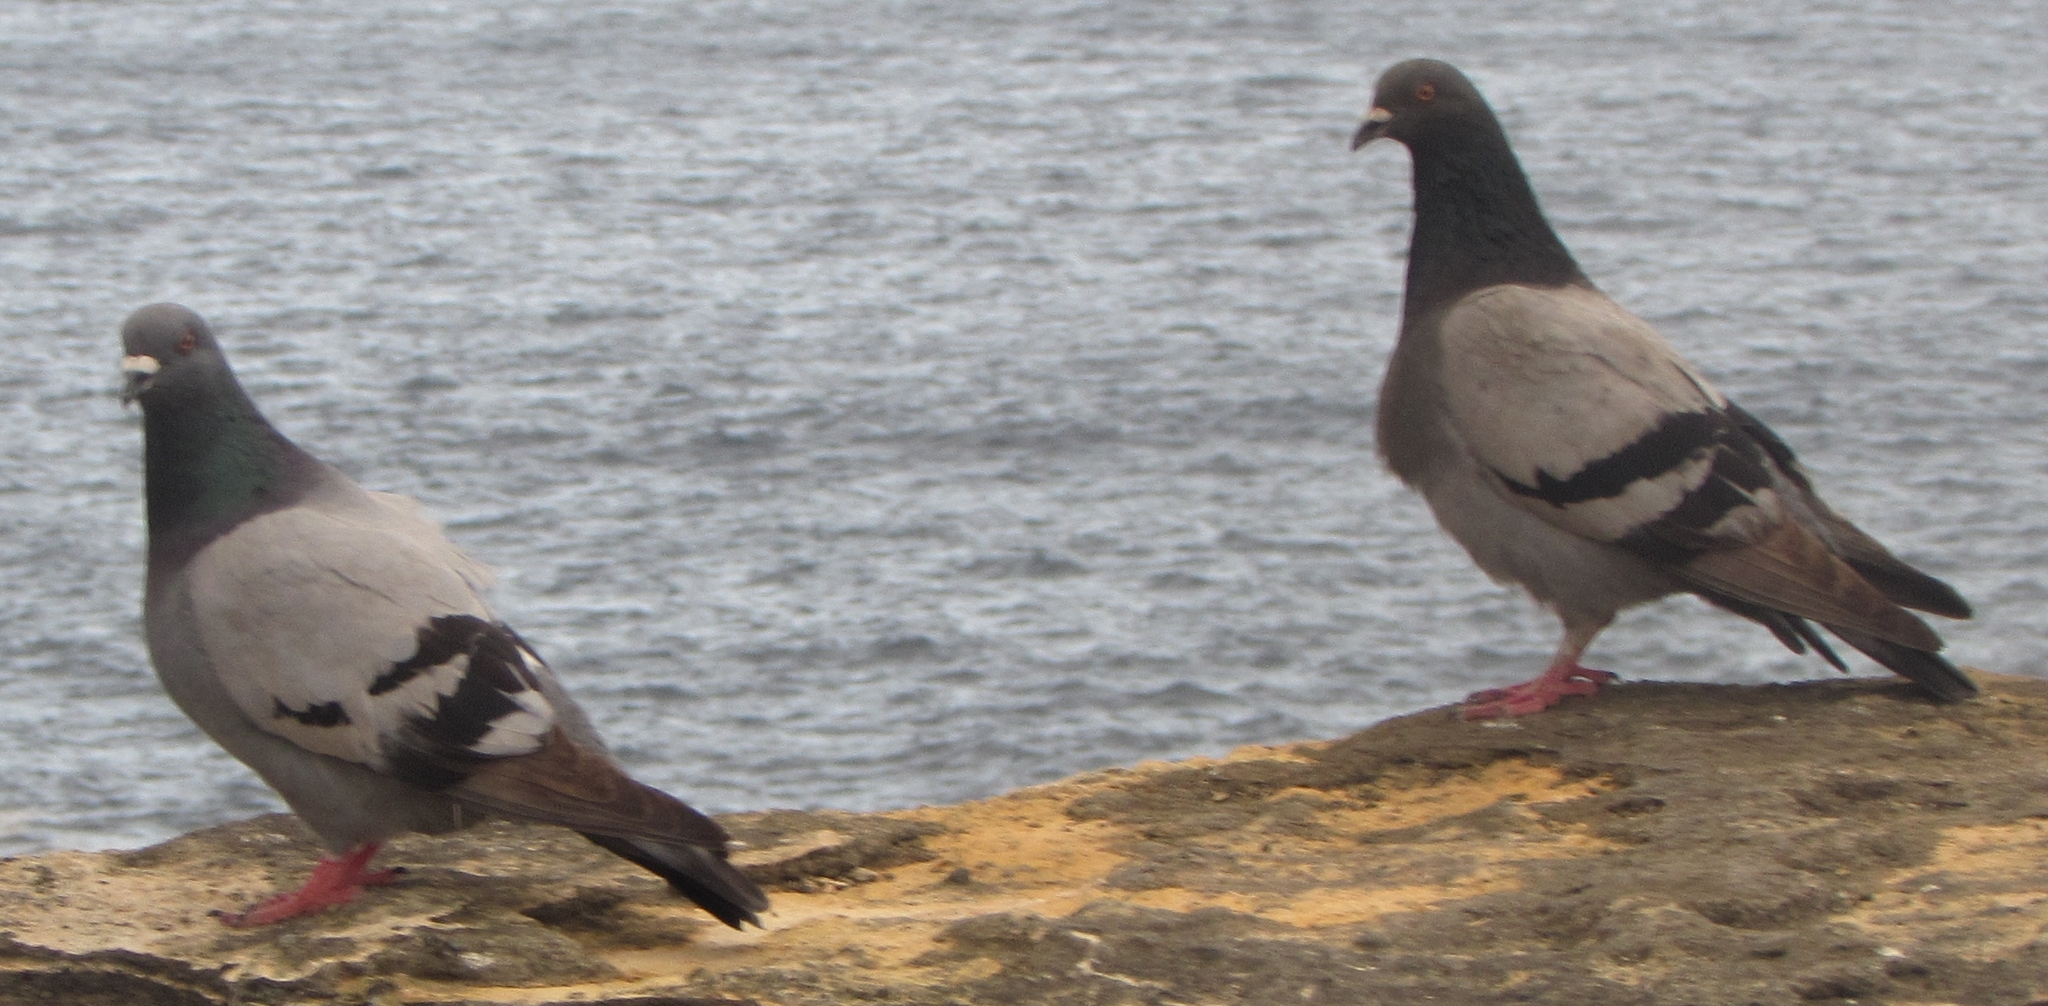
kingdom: Animalia
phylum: Chordata
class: Aves
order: Columbiformes
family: Columbidae
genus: Columba
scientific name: Columba livia
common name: Rock pigeon
